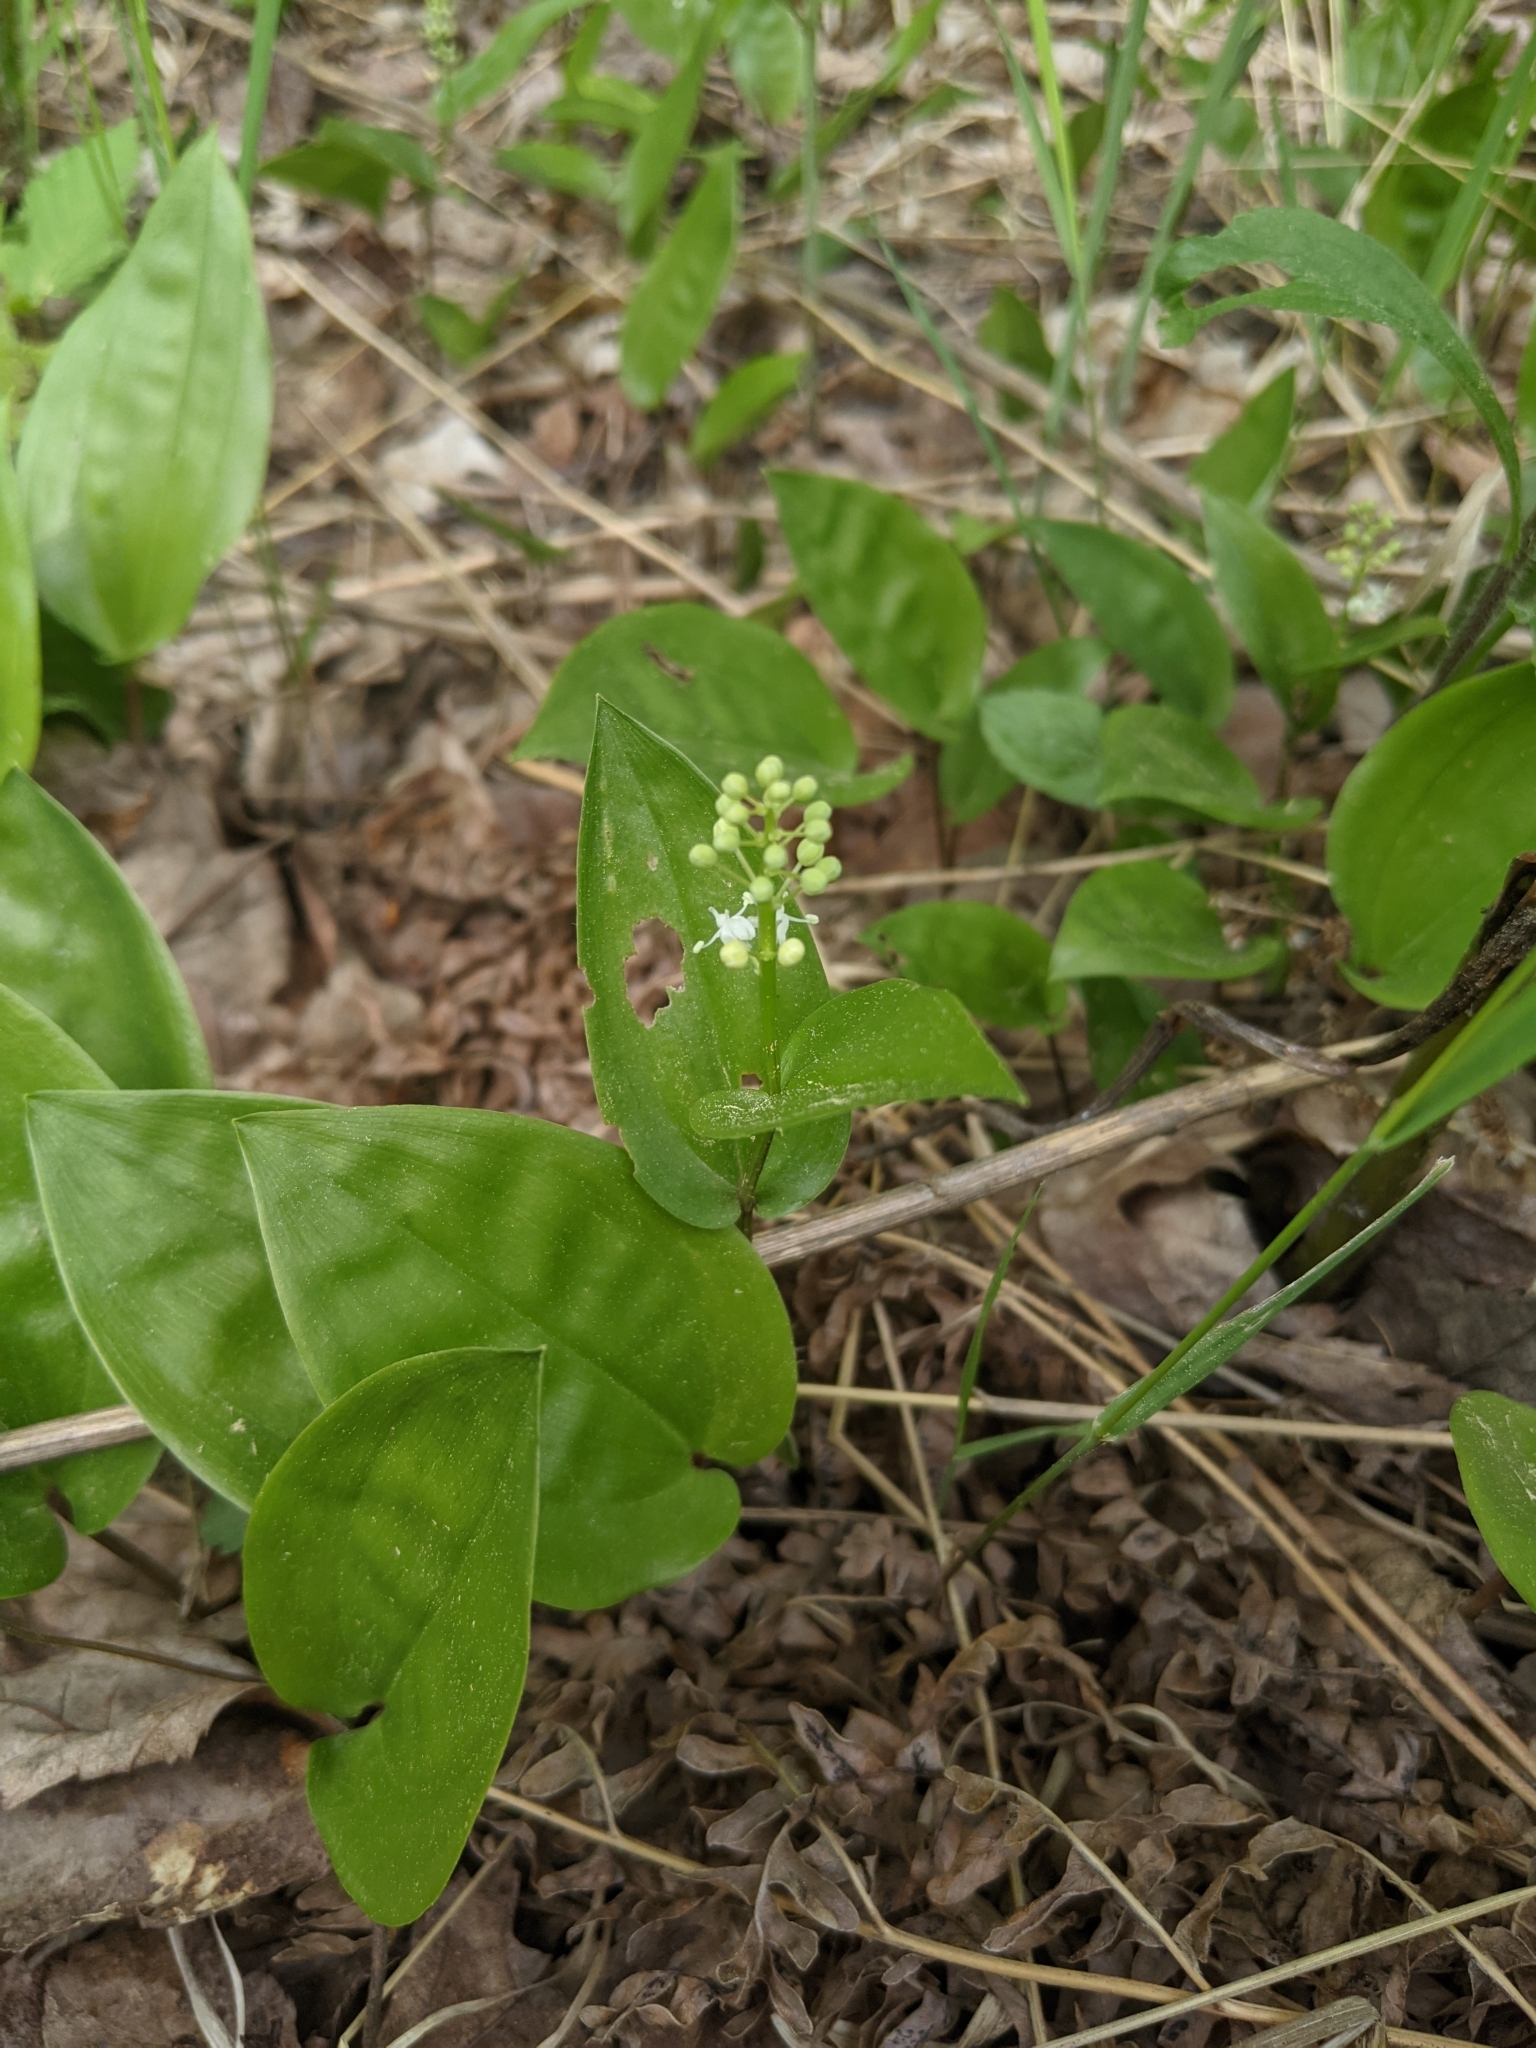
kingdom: Plantae
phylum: Tracheophyta
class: Liliopsida
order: Asparagales
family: Asparagaceae
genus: Maianthemum
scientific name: Maianthemum canadense
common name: False lily-of-the-valley
